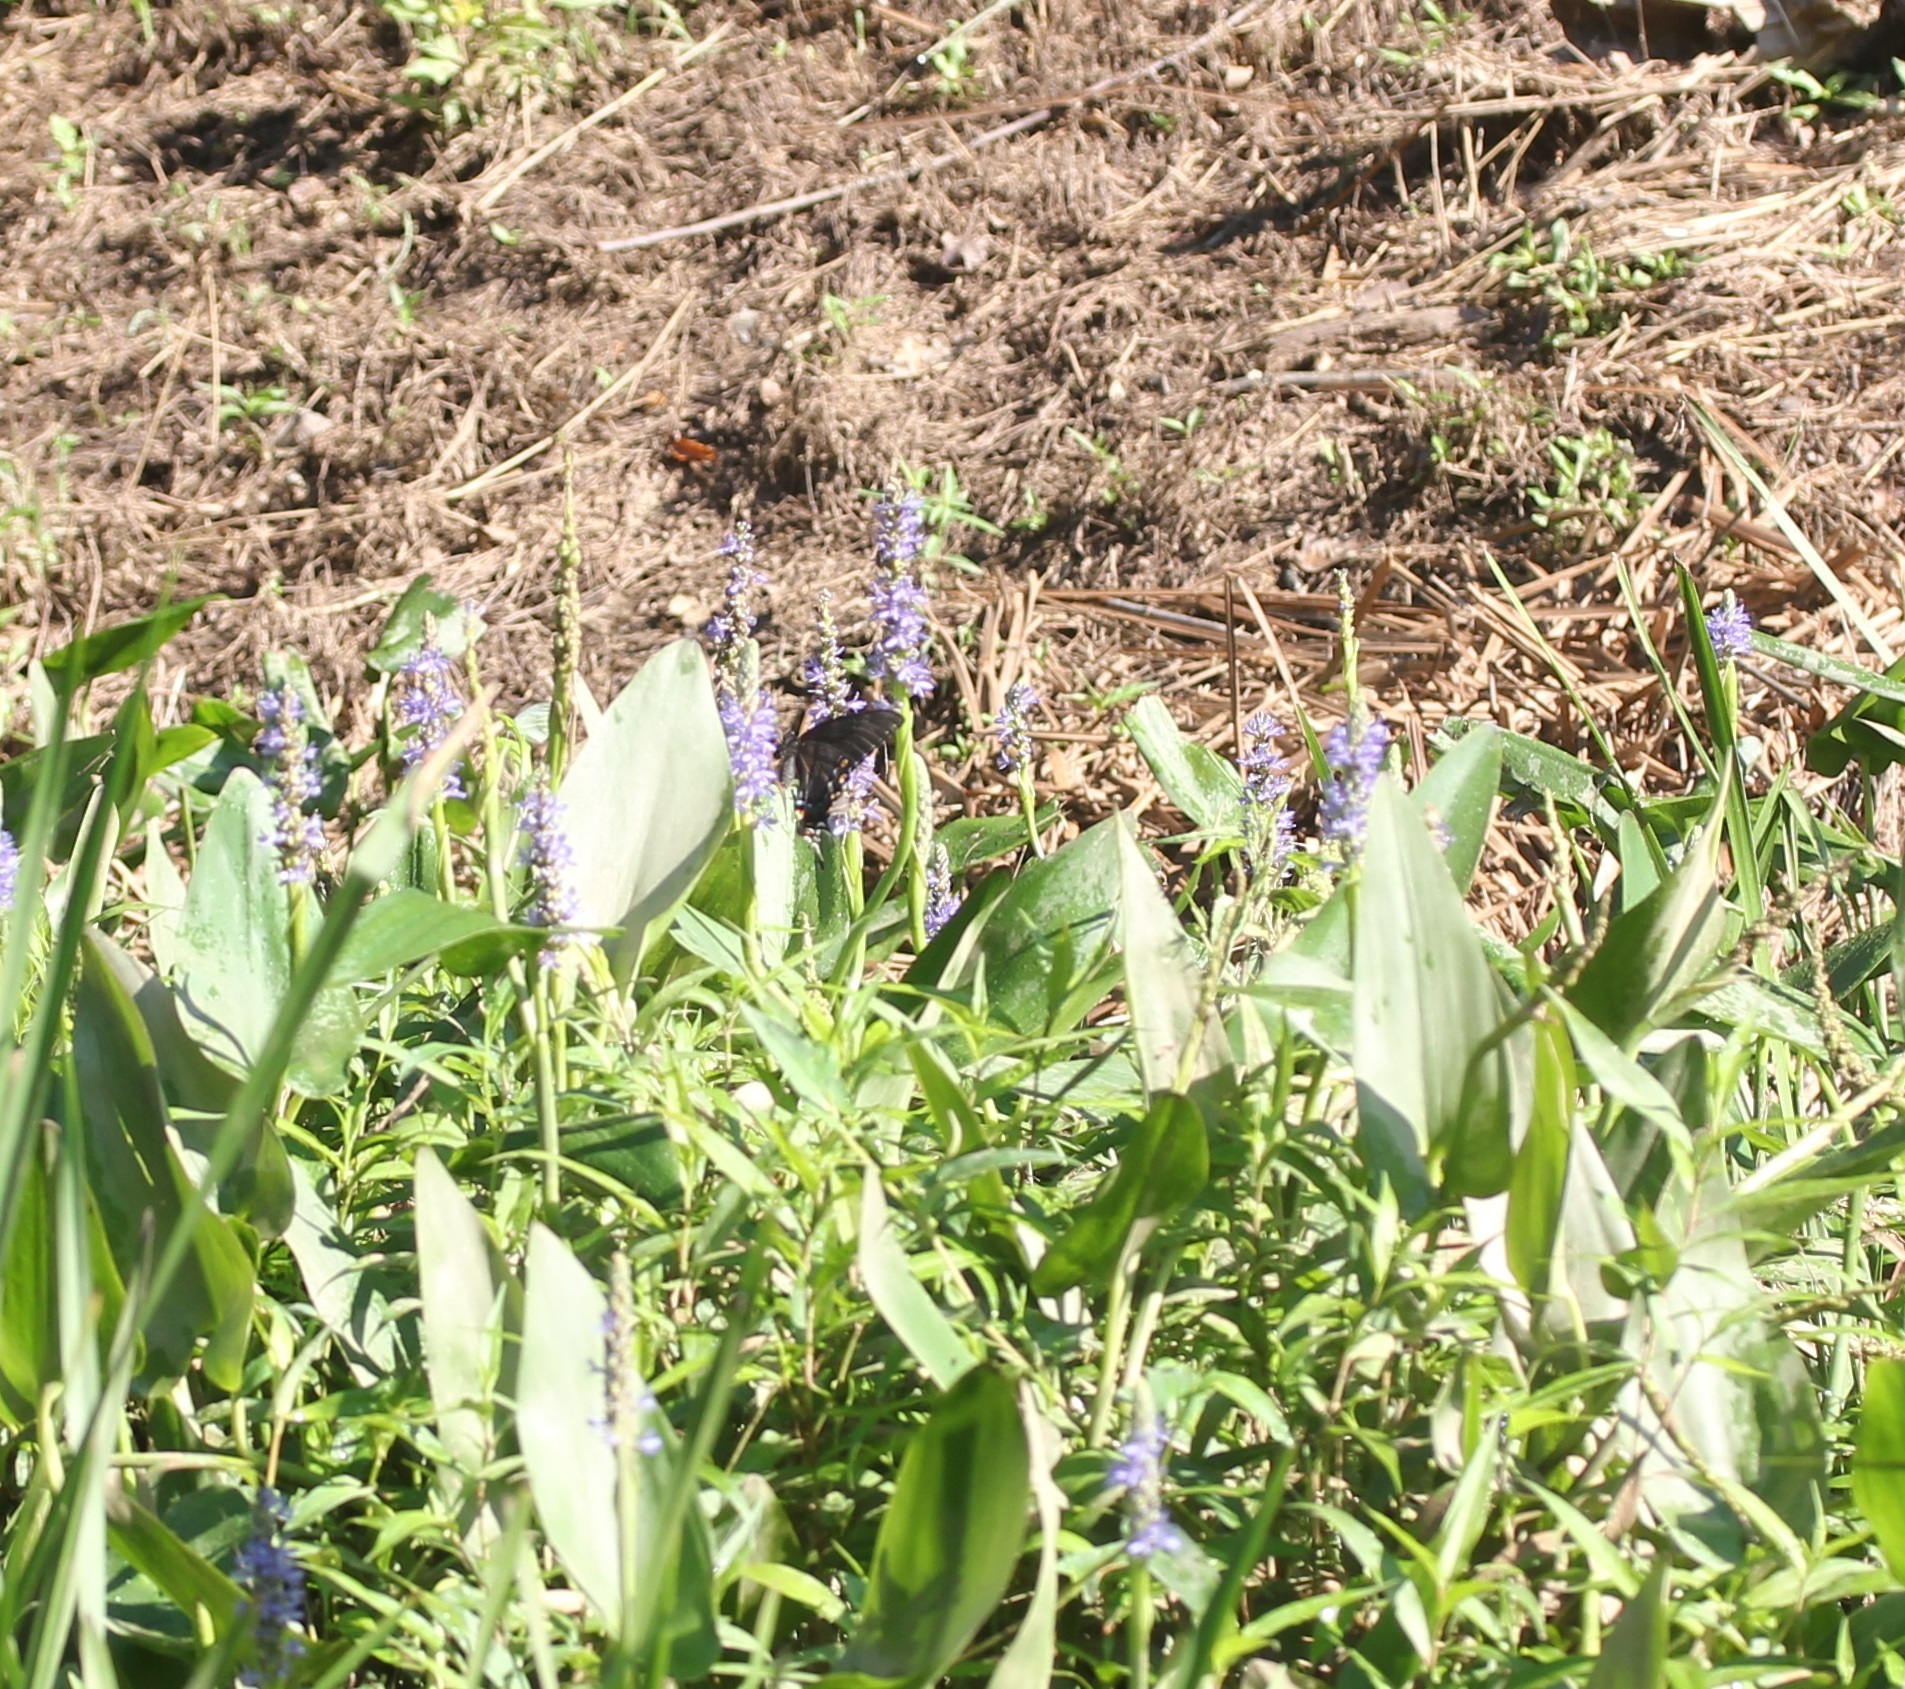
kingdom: Animalia
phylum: Arthropoda
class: Insecta
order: Lepidoptera
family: Papilionidae
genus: Papilio
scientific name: Papilio glaucus
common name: Tiger swallowtail
